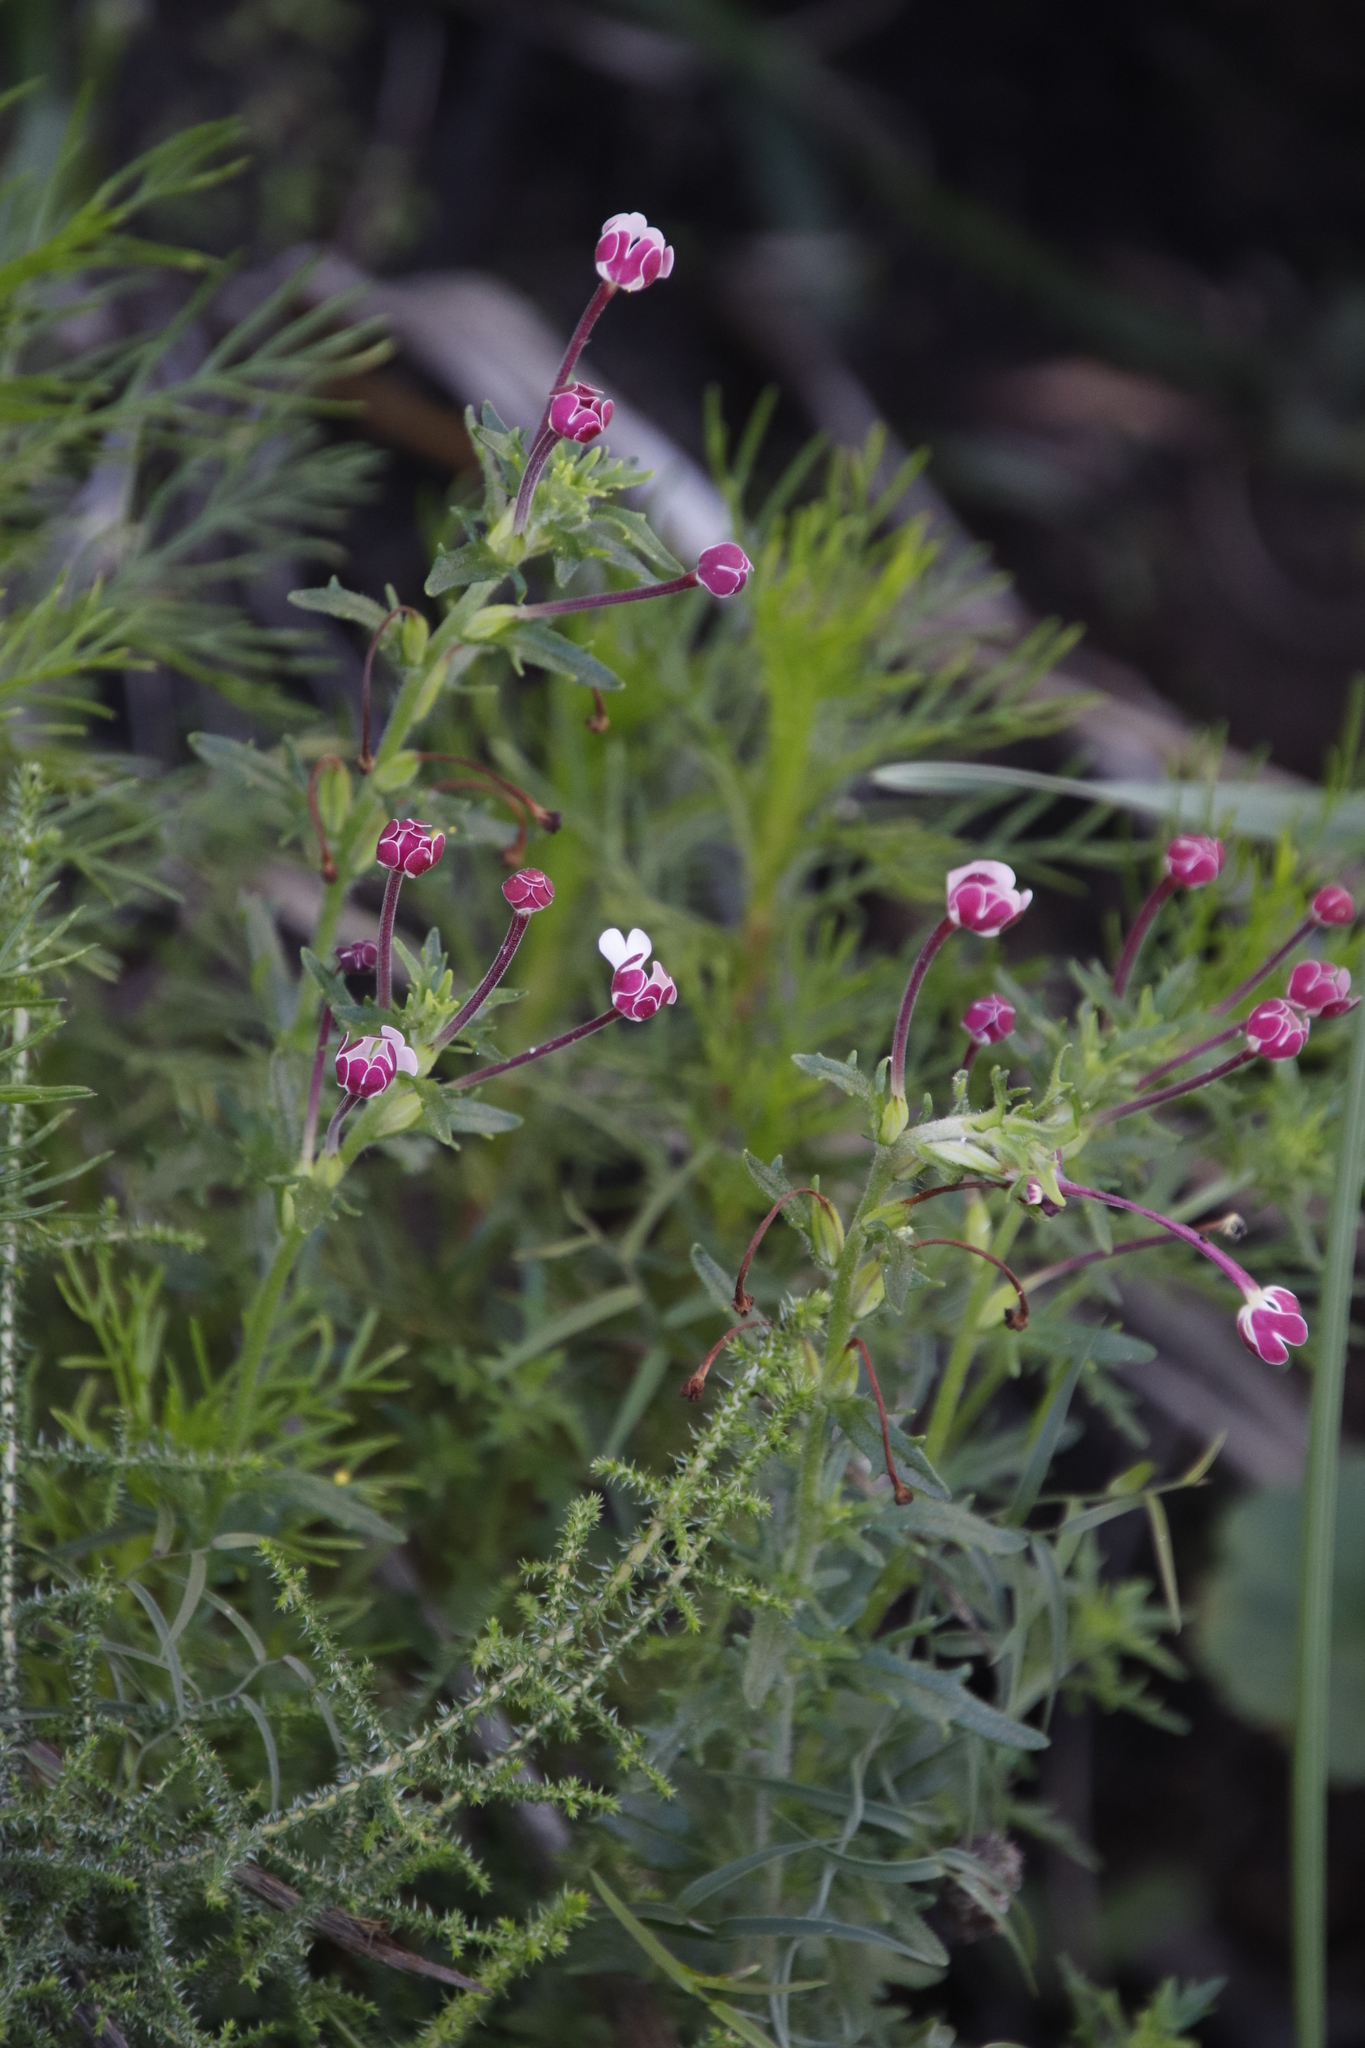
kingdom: Plantae
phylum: Tracheophyta
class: Magnoliopsida
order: Lamiales
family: Scrophulariaceae
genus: Zaluzianskya
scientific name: Zaluzianskya capensis
